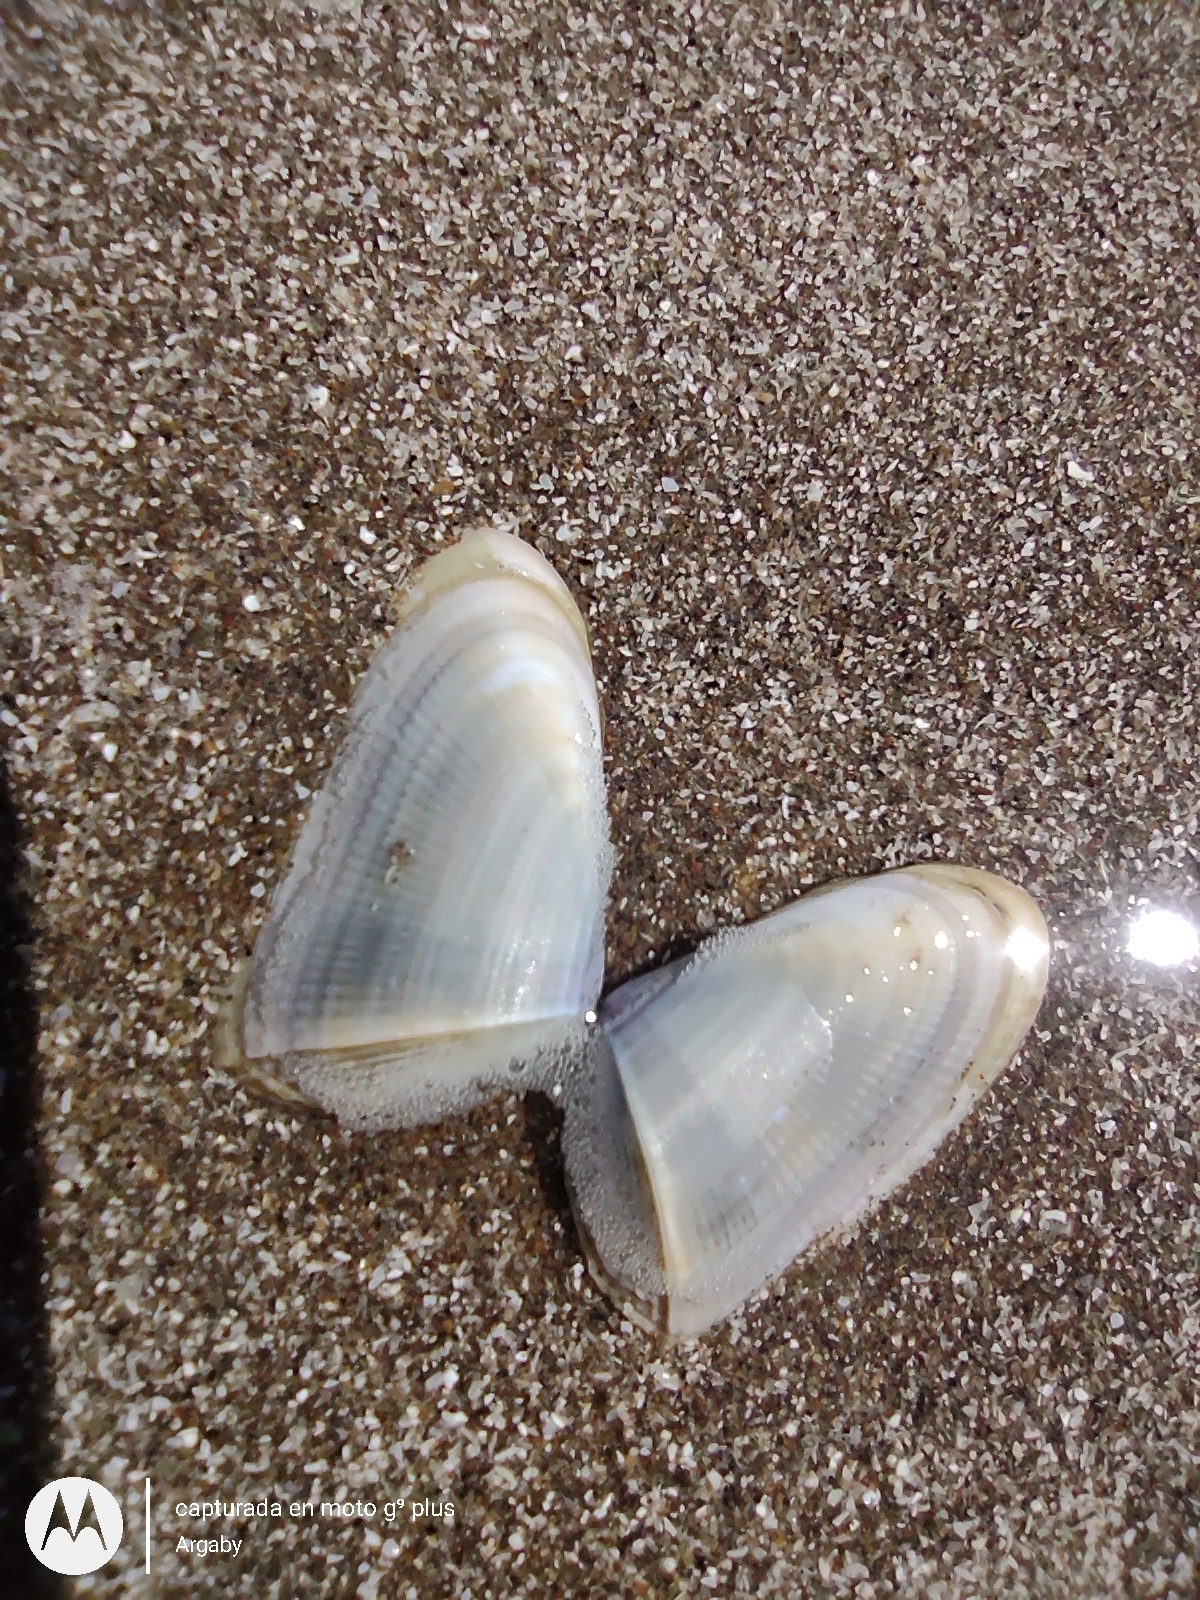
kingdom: Animalia
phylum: Mollusca
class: Bivalvia
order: Cardiida
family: Donacidae
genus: Donax
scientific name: Donax hanleyanus
